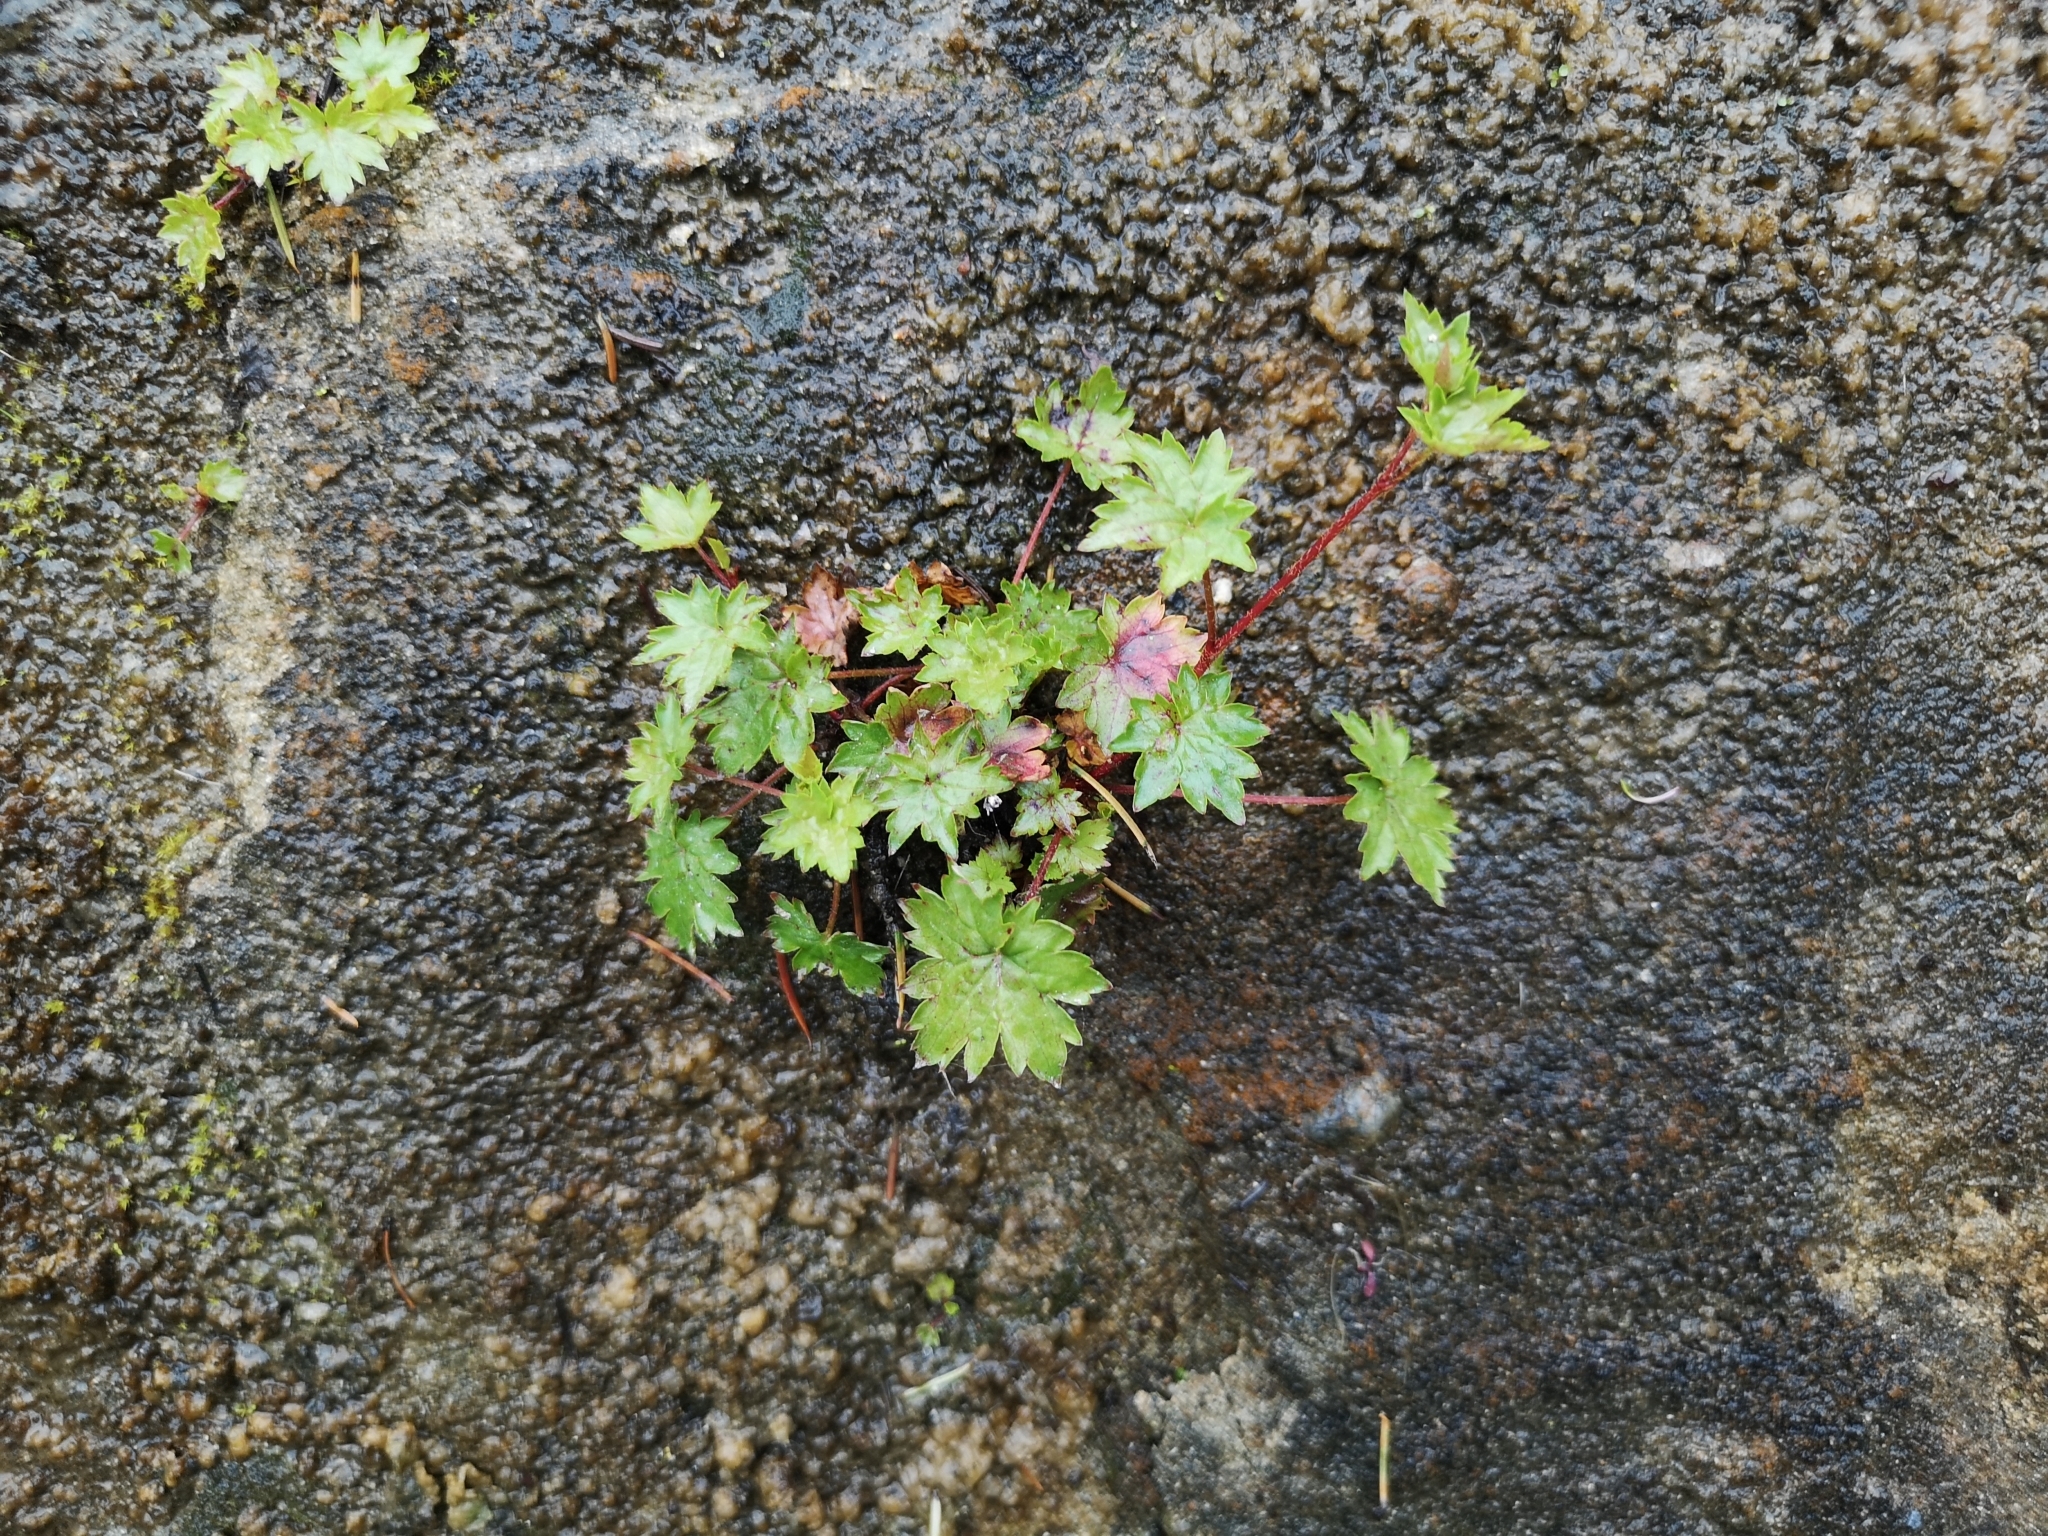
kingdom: Plantae
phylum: Tracheophyta
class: Magnoliopsida
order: Saxifragales
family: Saxifragaceae
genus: Boykinia
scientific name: Boykinia occidentalis
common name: Coast boykinia
